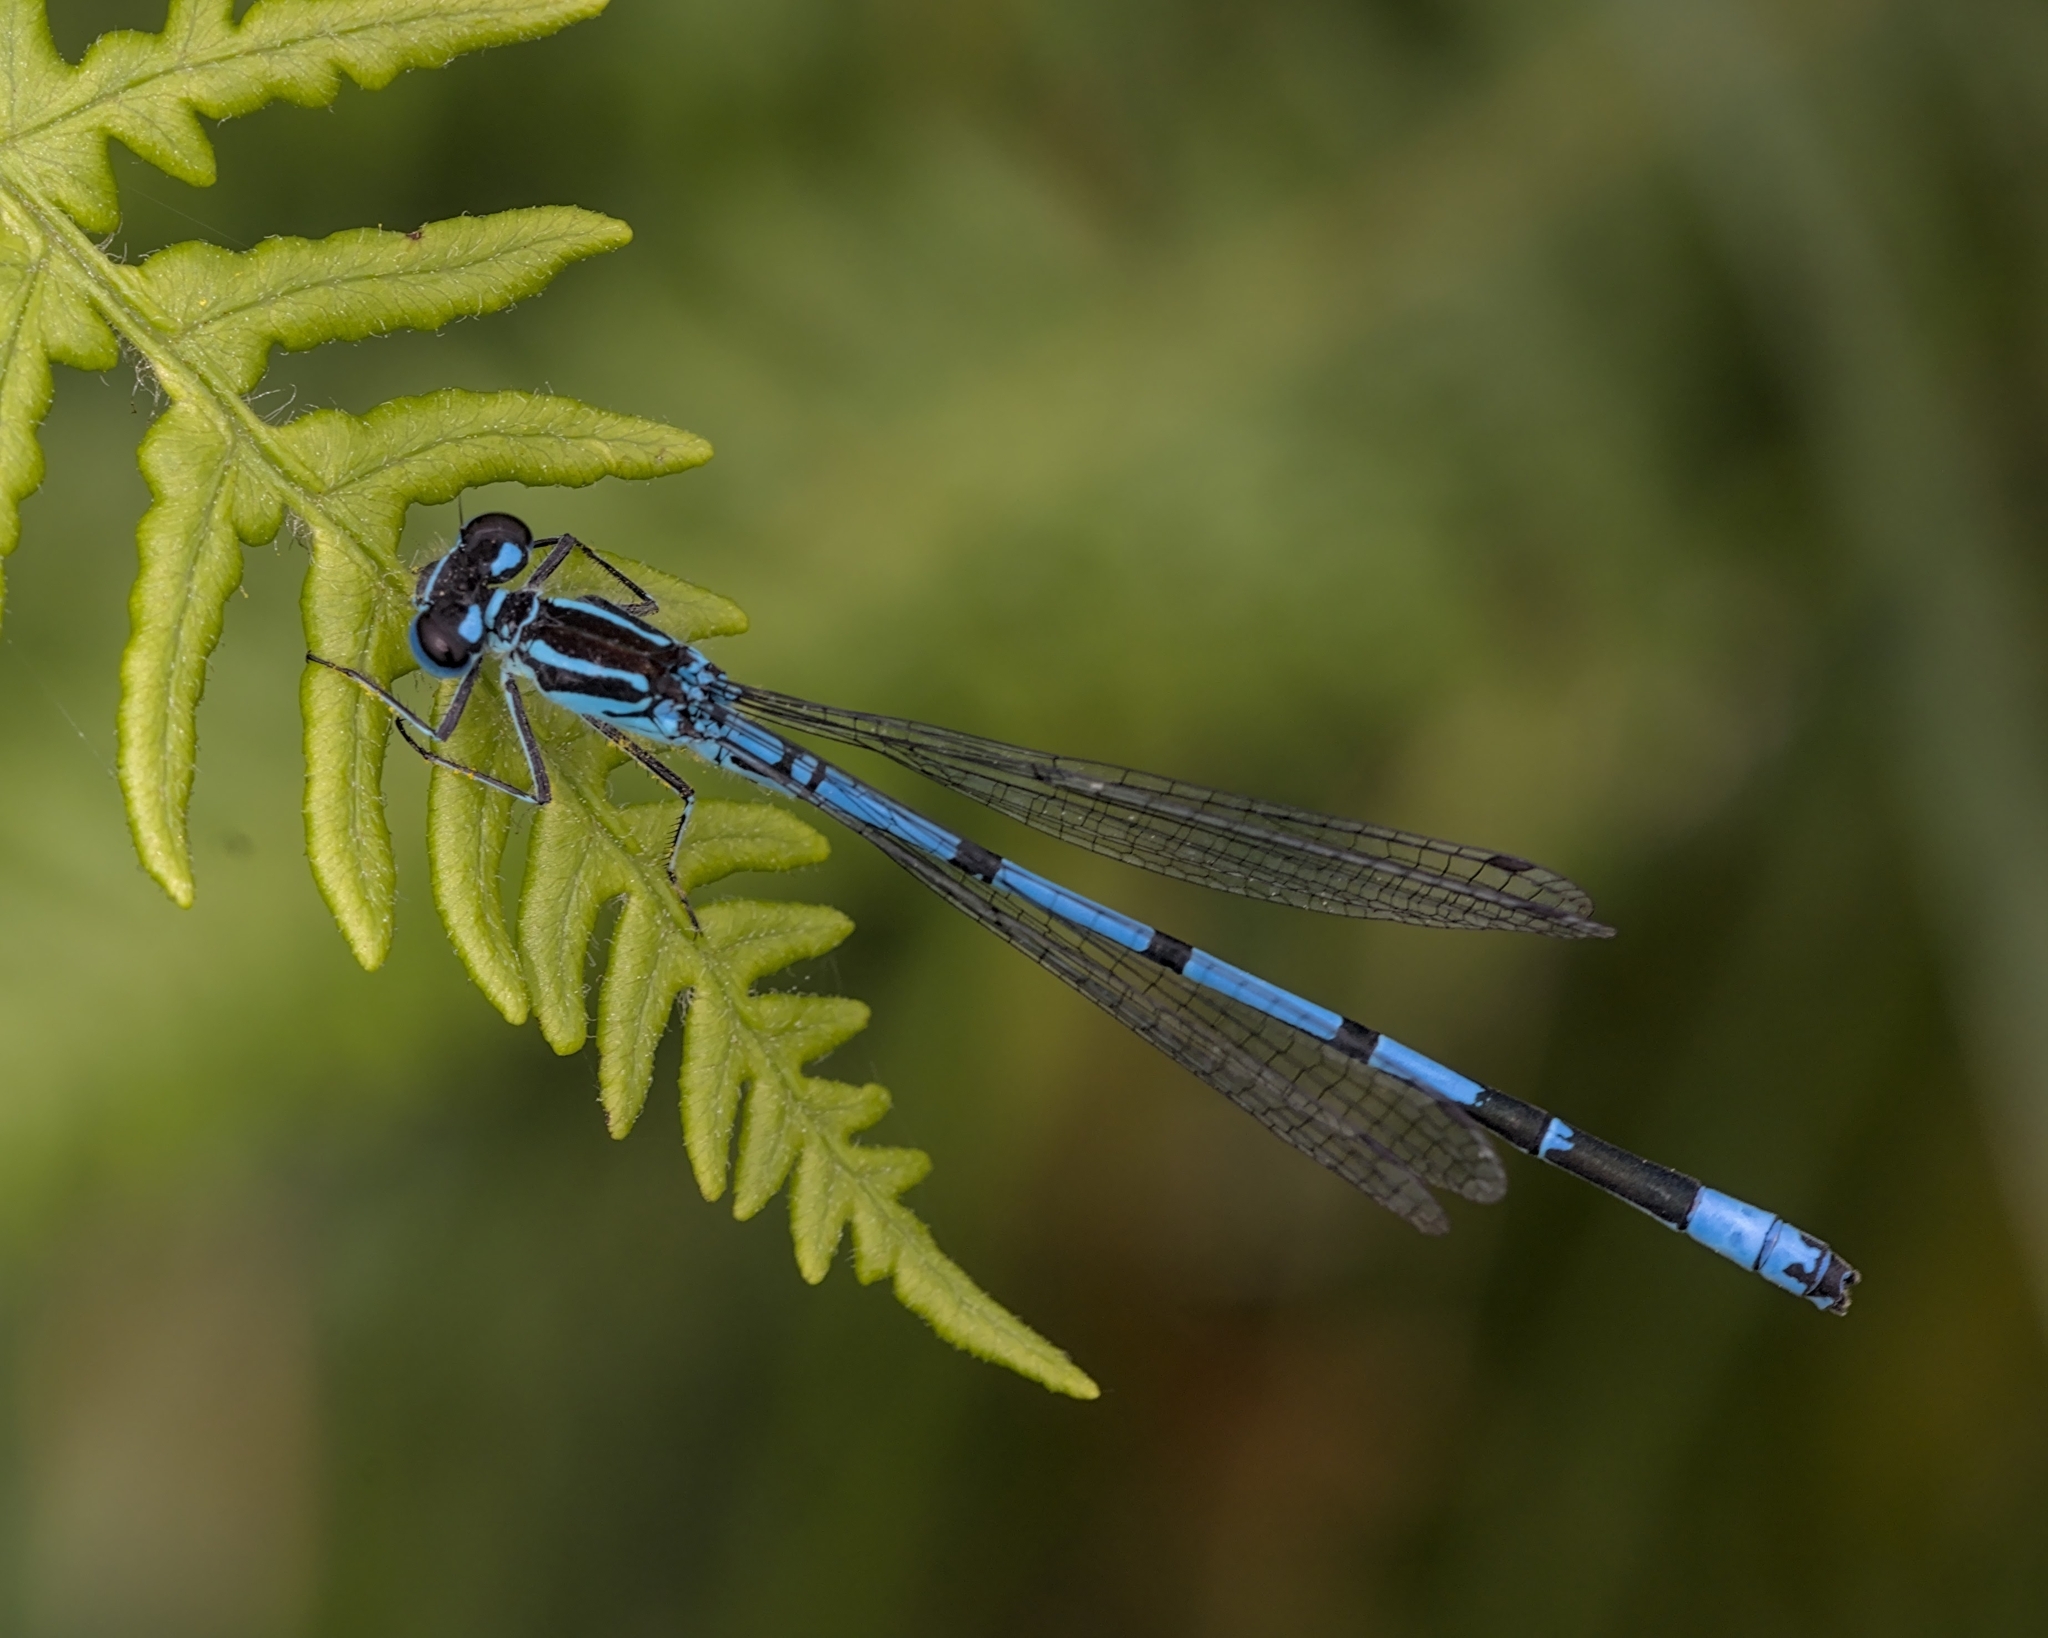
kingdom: Animalia
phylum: Arthropoda
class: Insecta
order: Odonata
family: Coenagrionidae
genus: Coenagrion
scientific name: Coenagrion puella
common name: Azure damselfly
